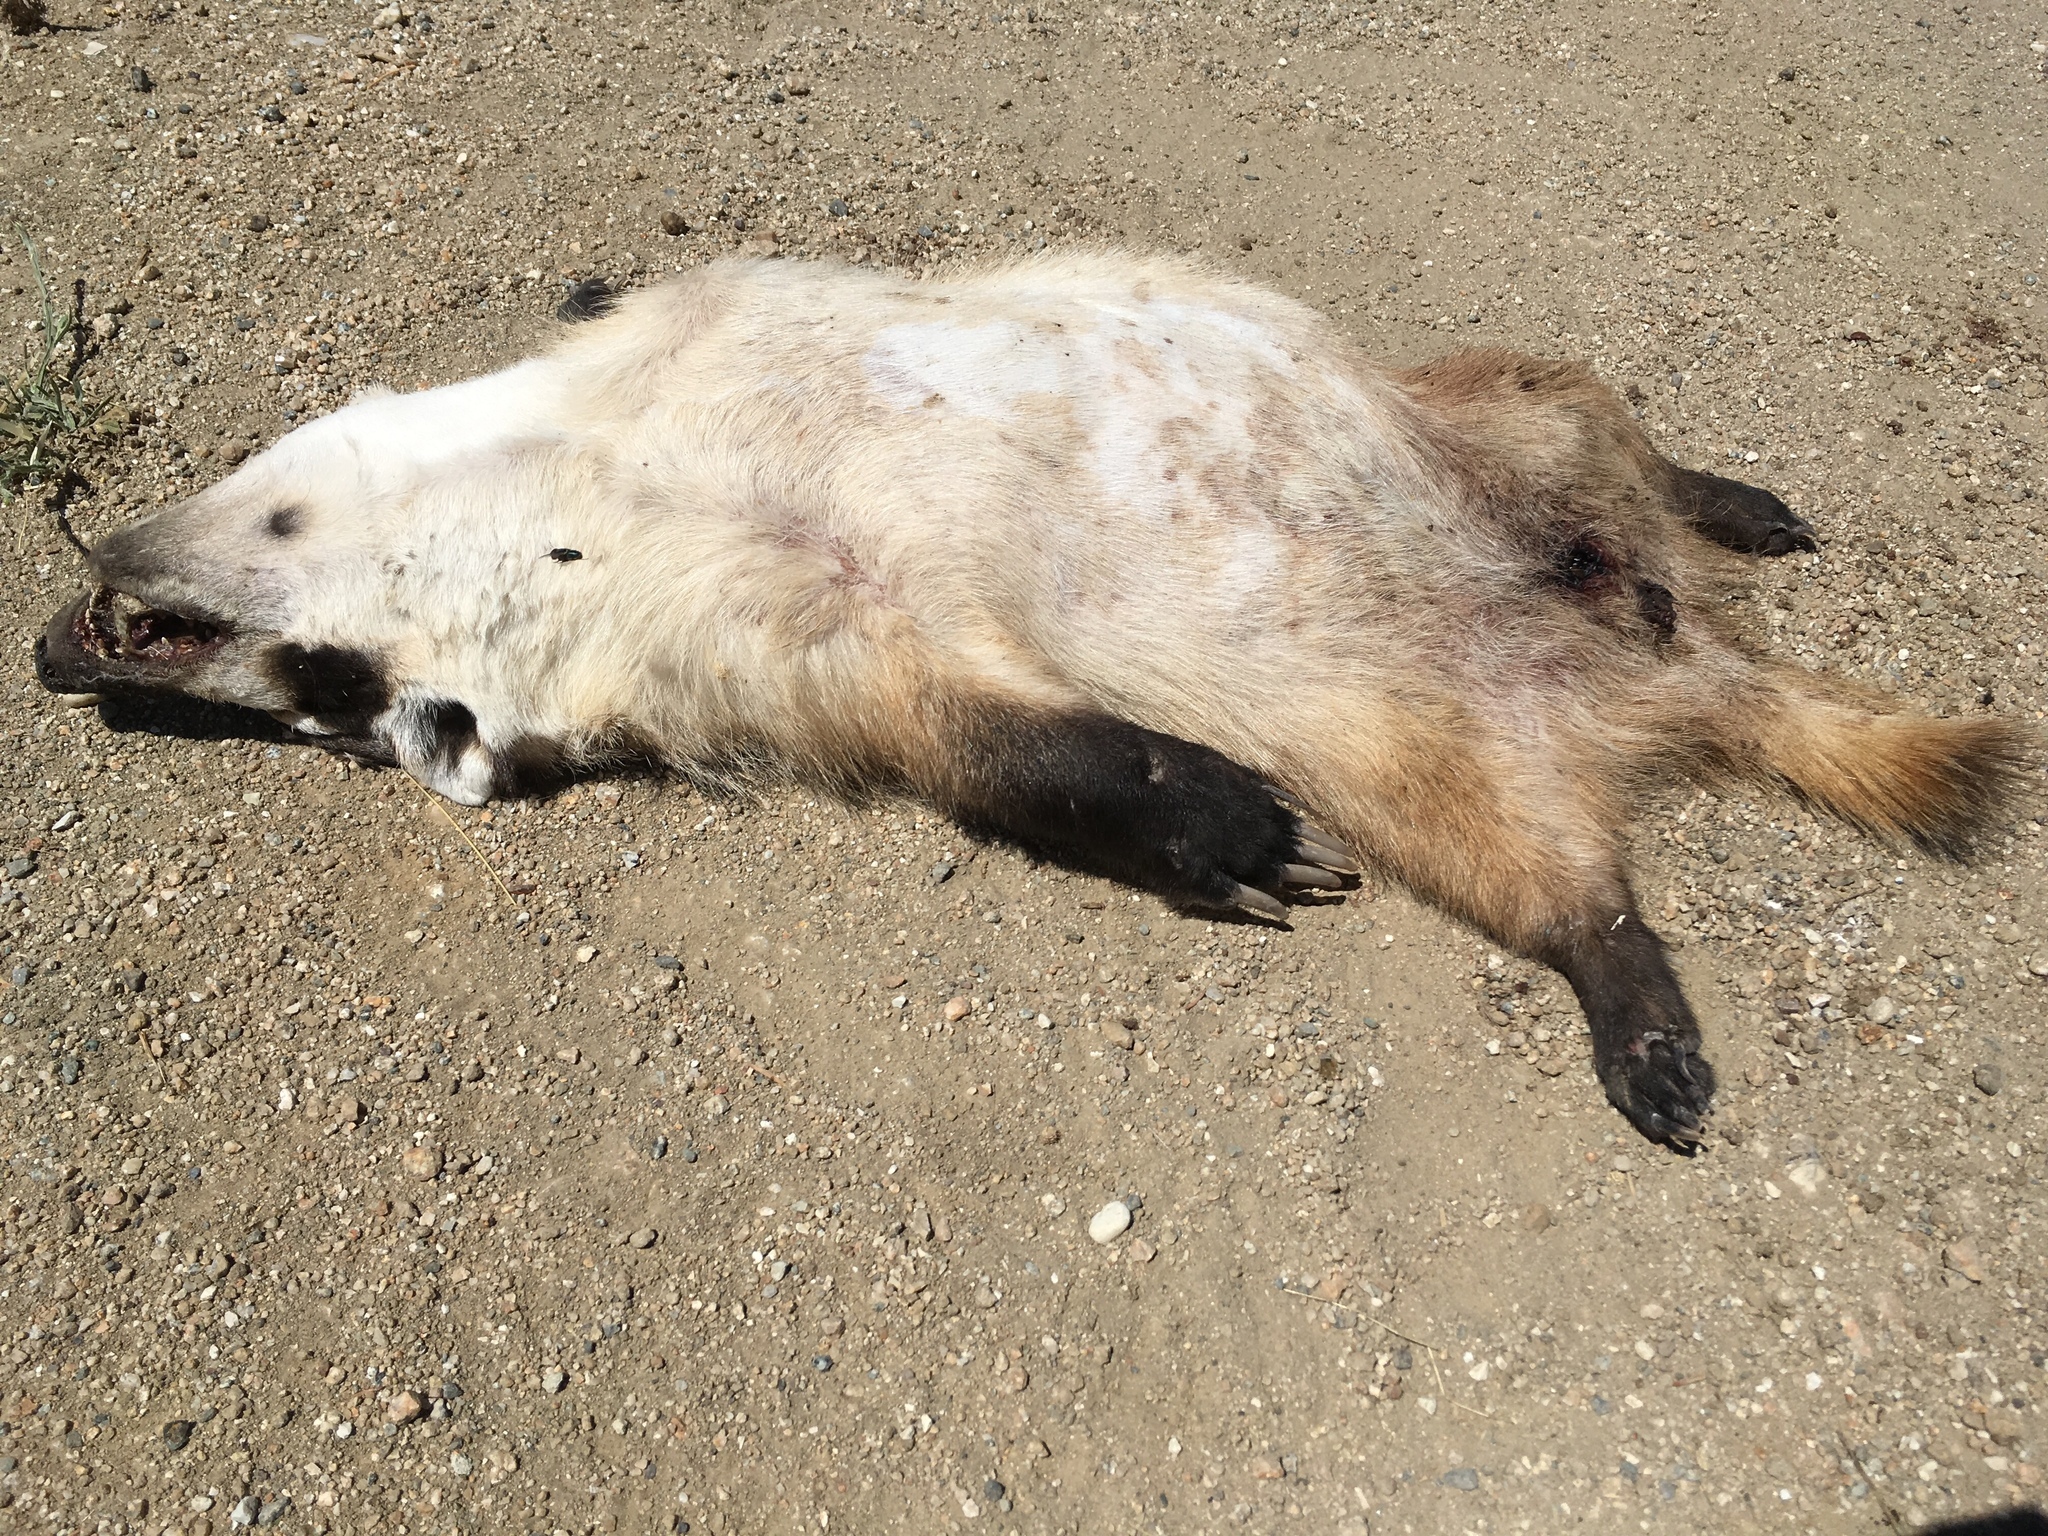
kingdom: Animalia
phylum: Chordata
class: Mammalia
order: Carnivora
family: Mustelidae
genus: Taxidea
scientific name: Taxidea taxus
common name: American badger
